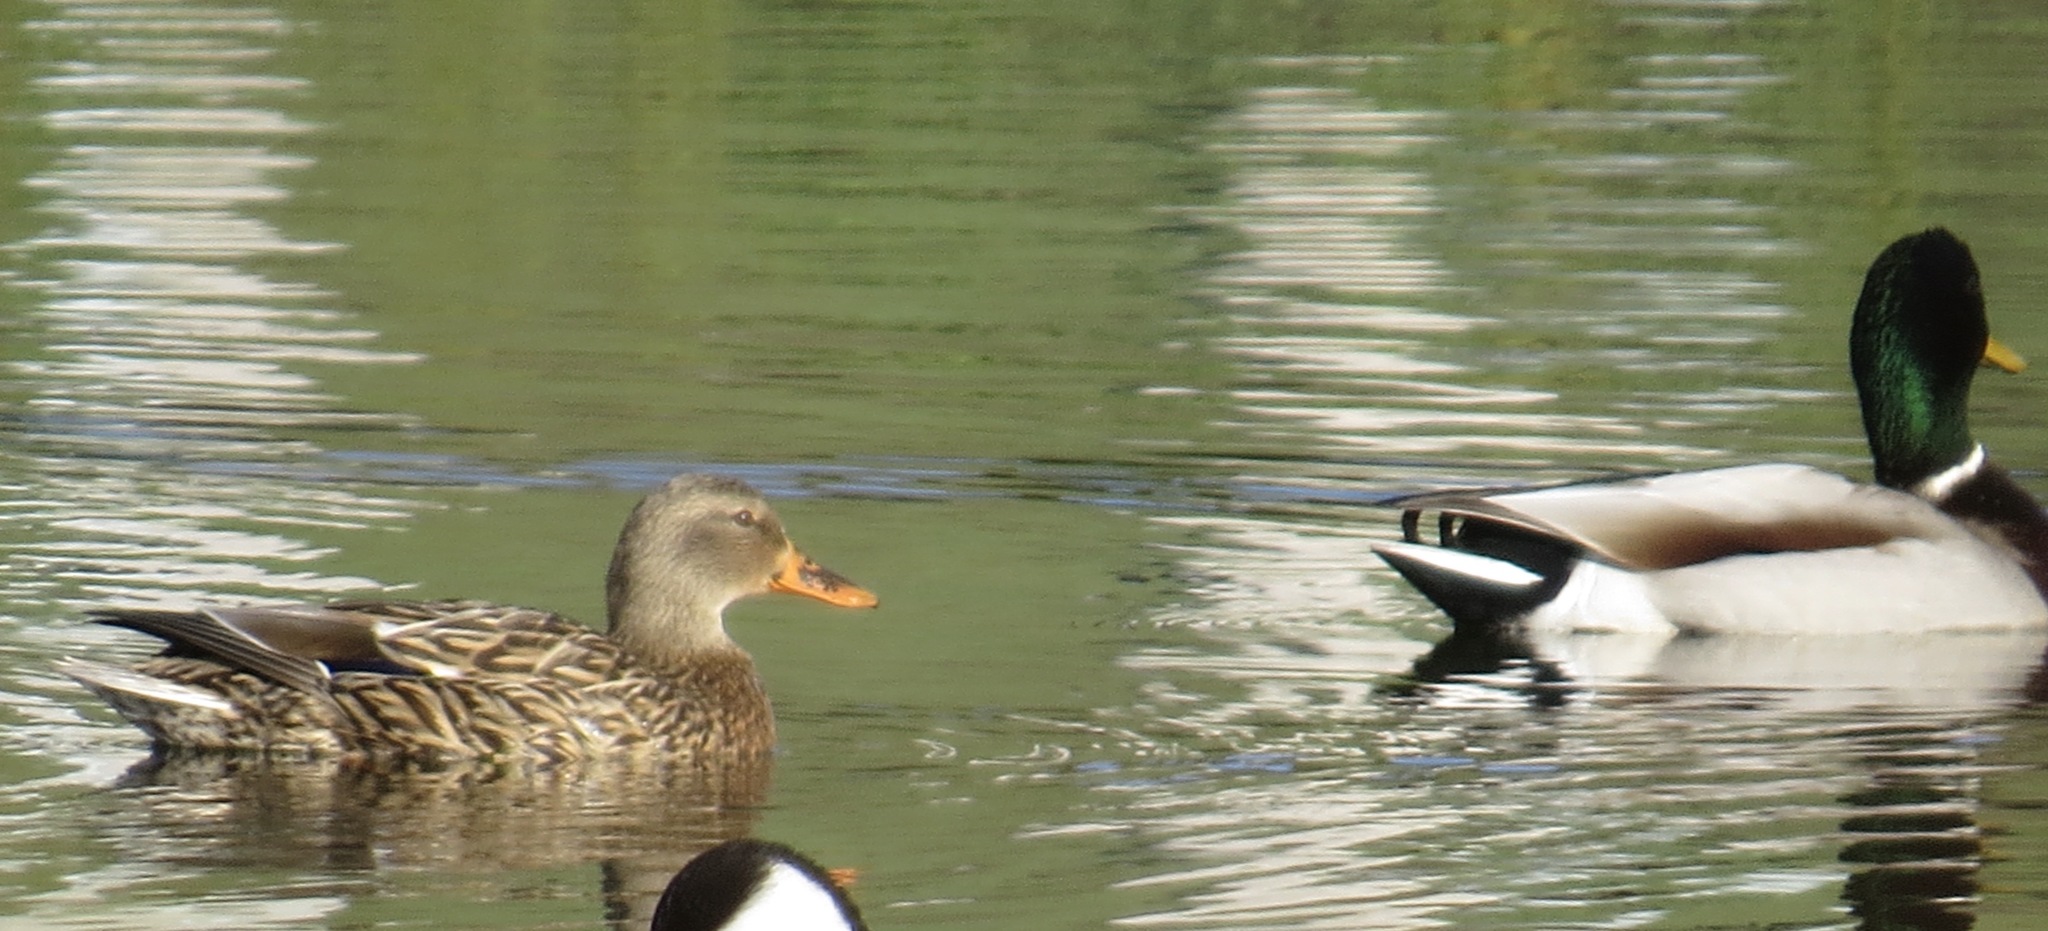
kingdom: Animalia
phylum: Chordata
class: Aves
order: Anseriformes
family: Anatidae
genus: Anas
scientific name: Anas platyrhynchos
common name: Mallard
